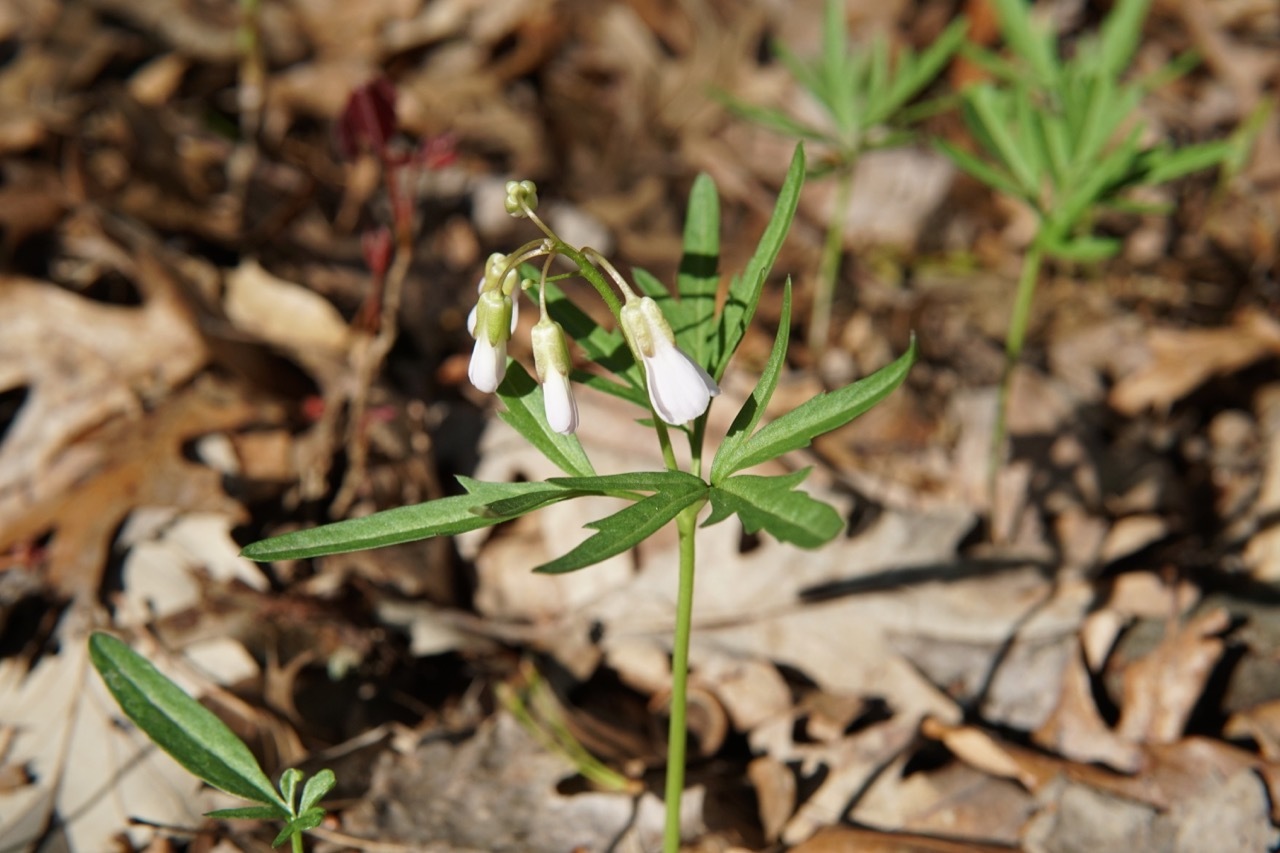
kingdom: Plantae
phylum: Tracheophyta
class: Magnoliopsida
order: Brassicales
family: Brassicaceae
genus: Cardamine
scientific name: Cardamine concatenata
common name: Cut-leaf toothcup
